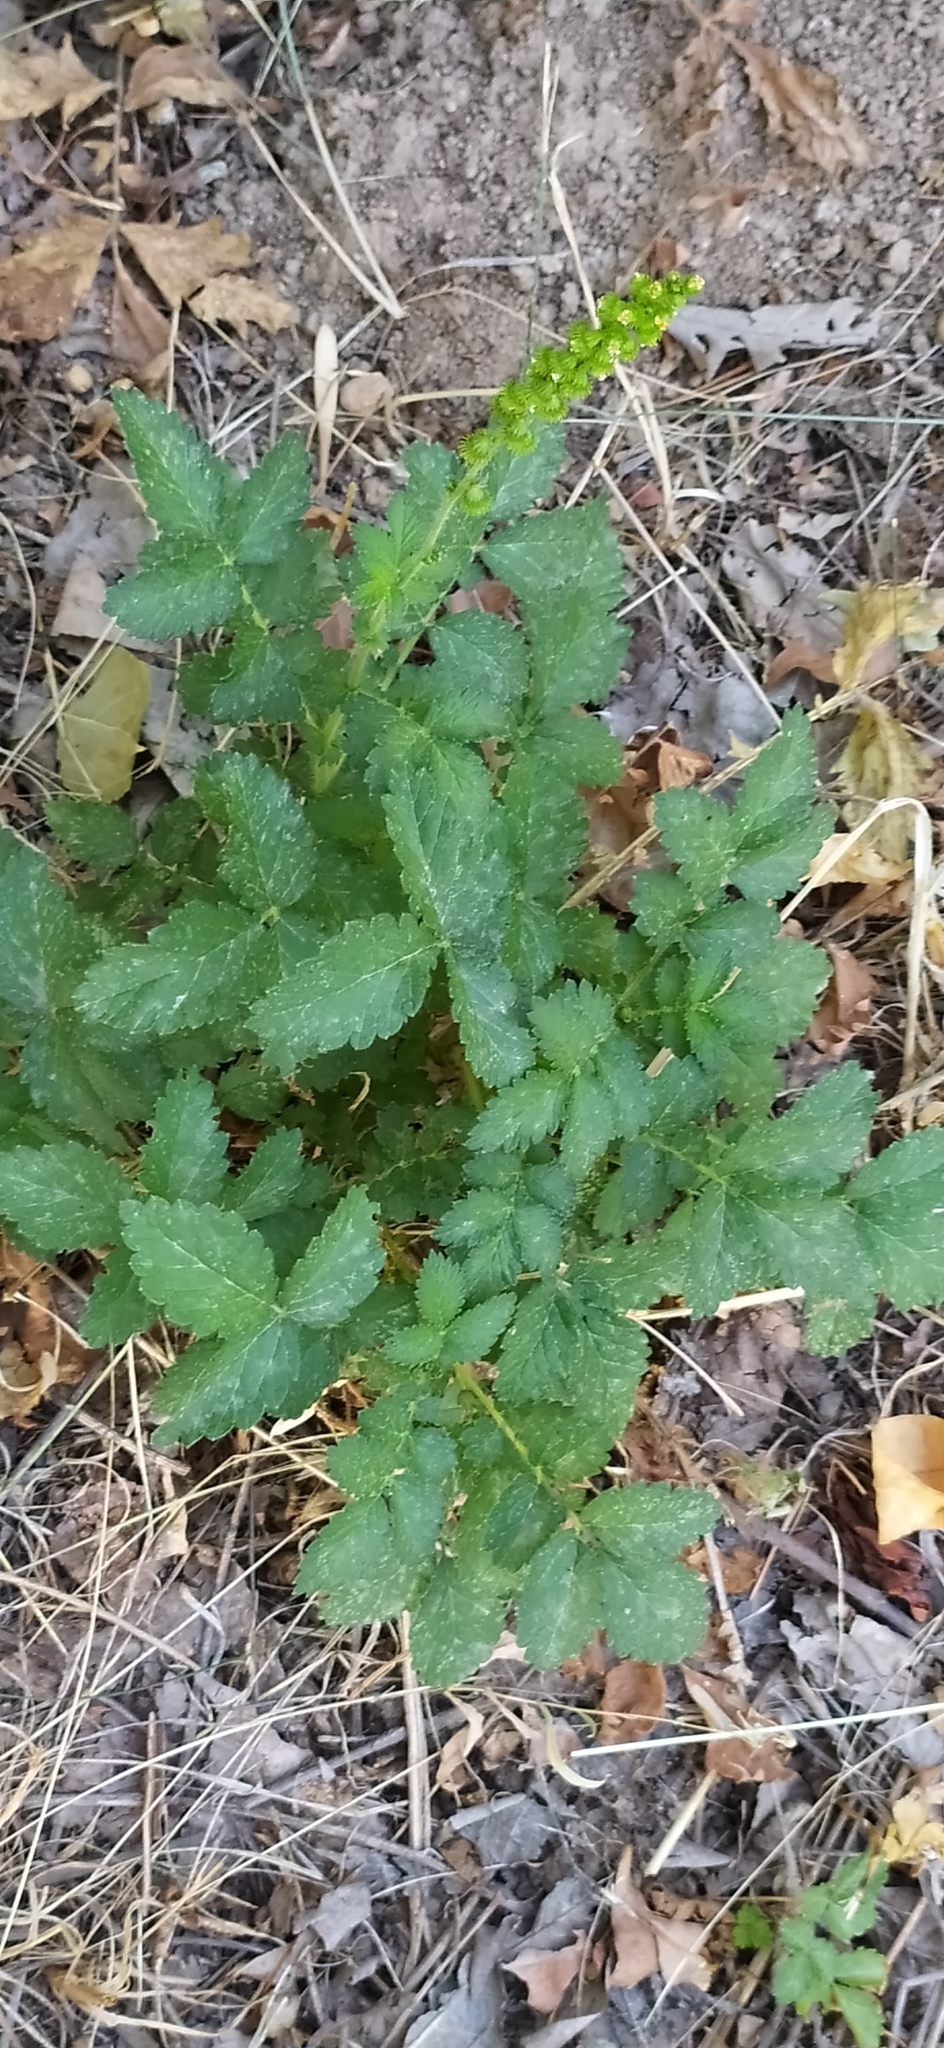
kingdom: Plantae
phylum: Tracheophyta
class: Magnoliopsida
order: Rosales
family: Rosaceae
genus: Agrimonia
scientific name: Agrimonia eupatoria
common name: Agrimony
